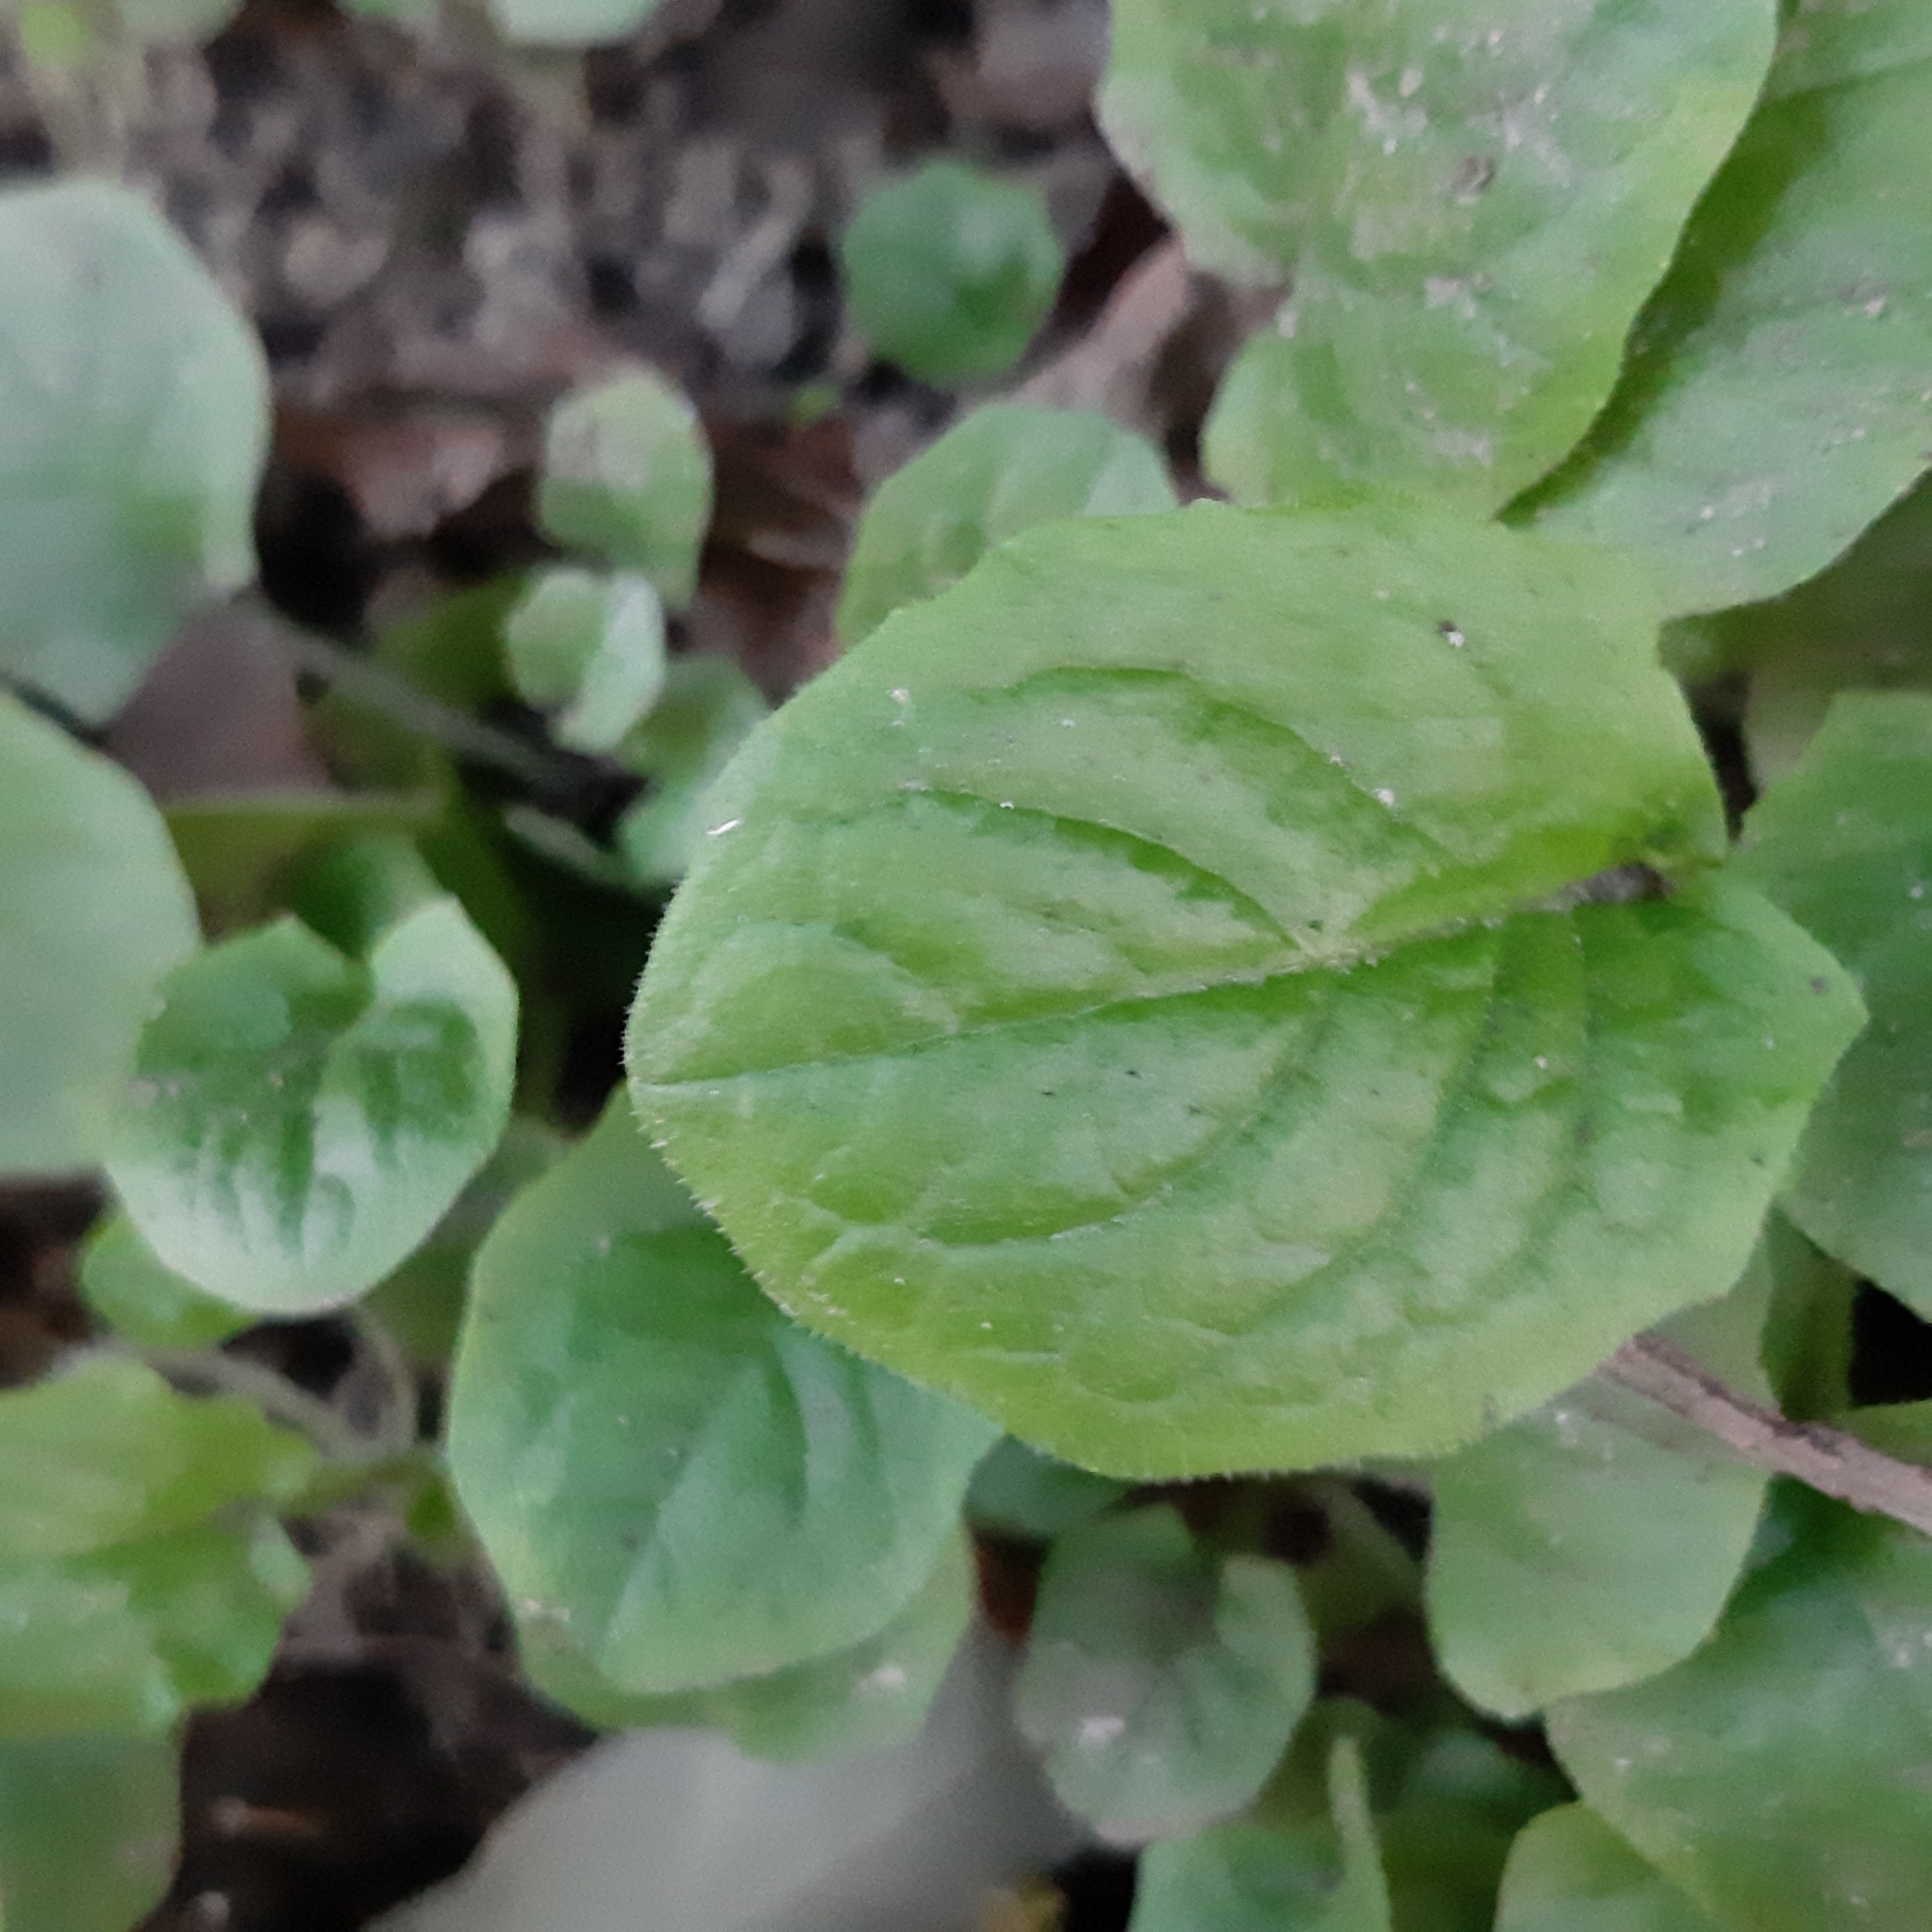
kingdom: Plantae
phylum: Tracheophyta
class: Magnoliopsida
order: Asterales
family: Asteraceae
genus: Lapsana
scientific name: Lapsana communis
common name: Nipplewort
